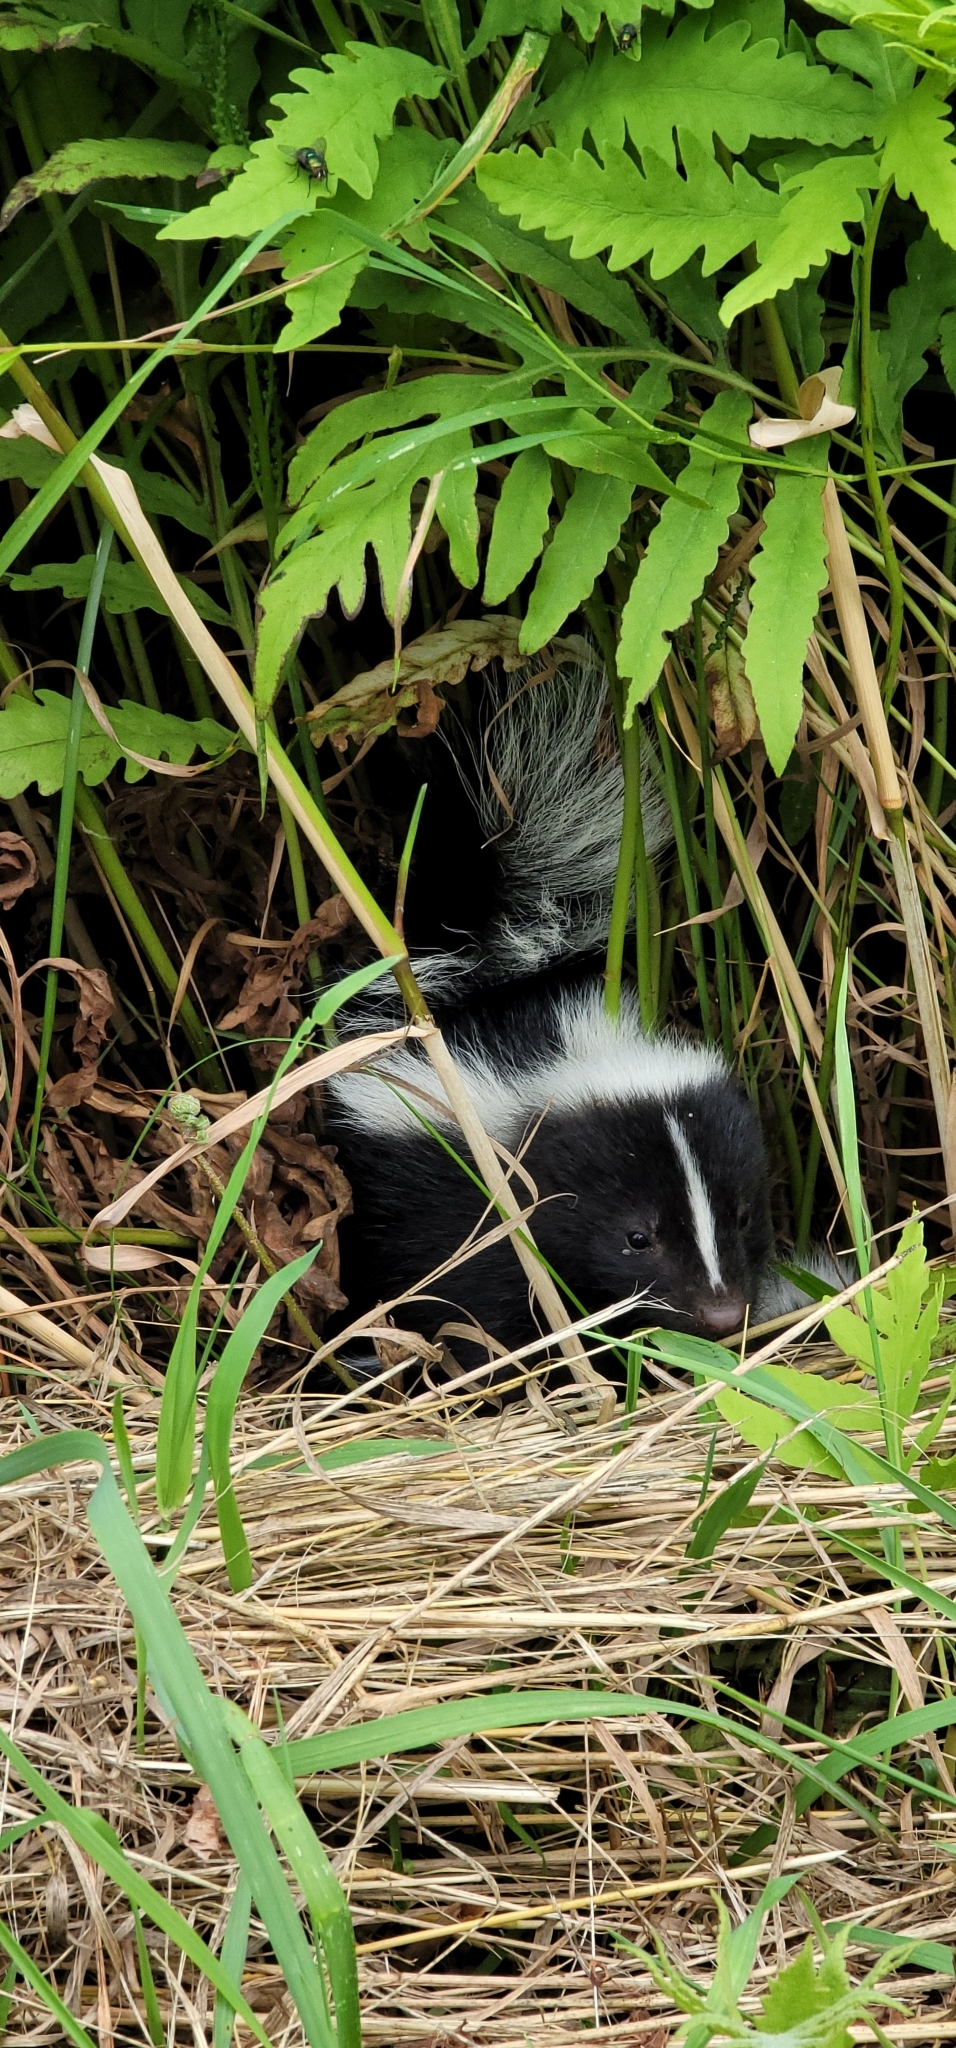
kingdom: Animalia
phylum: Chordata
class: Mammalia
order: Carnivora
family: Mephitidae
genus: Mephitis
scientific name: Mephitis mephitis
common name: Striped skunk
